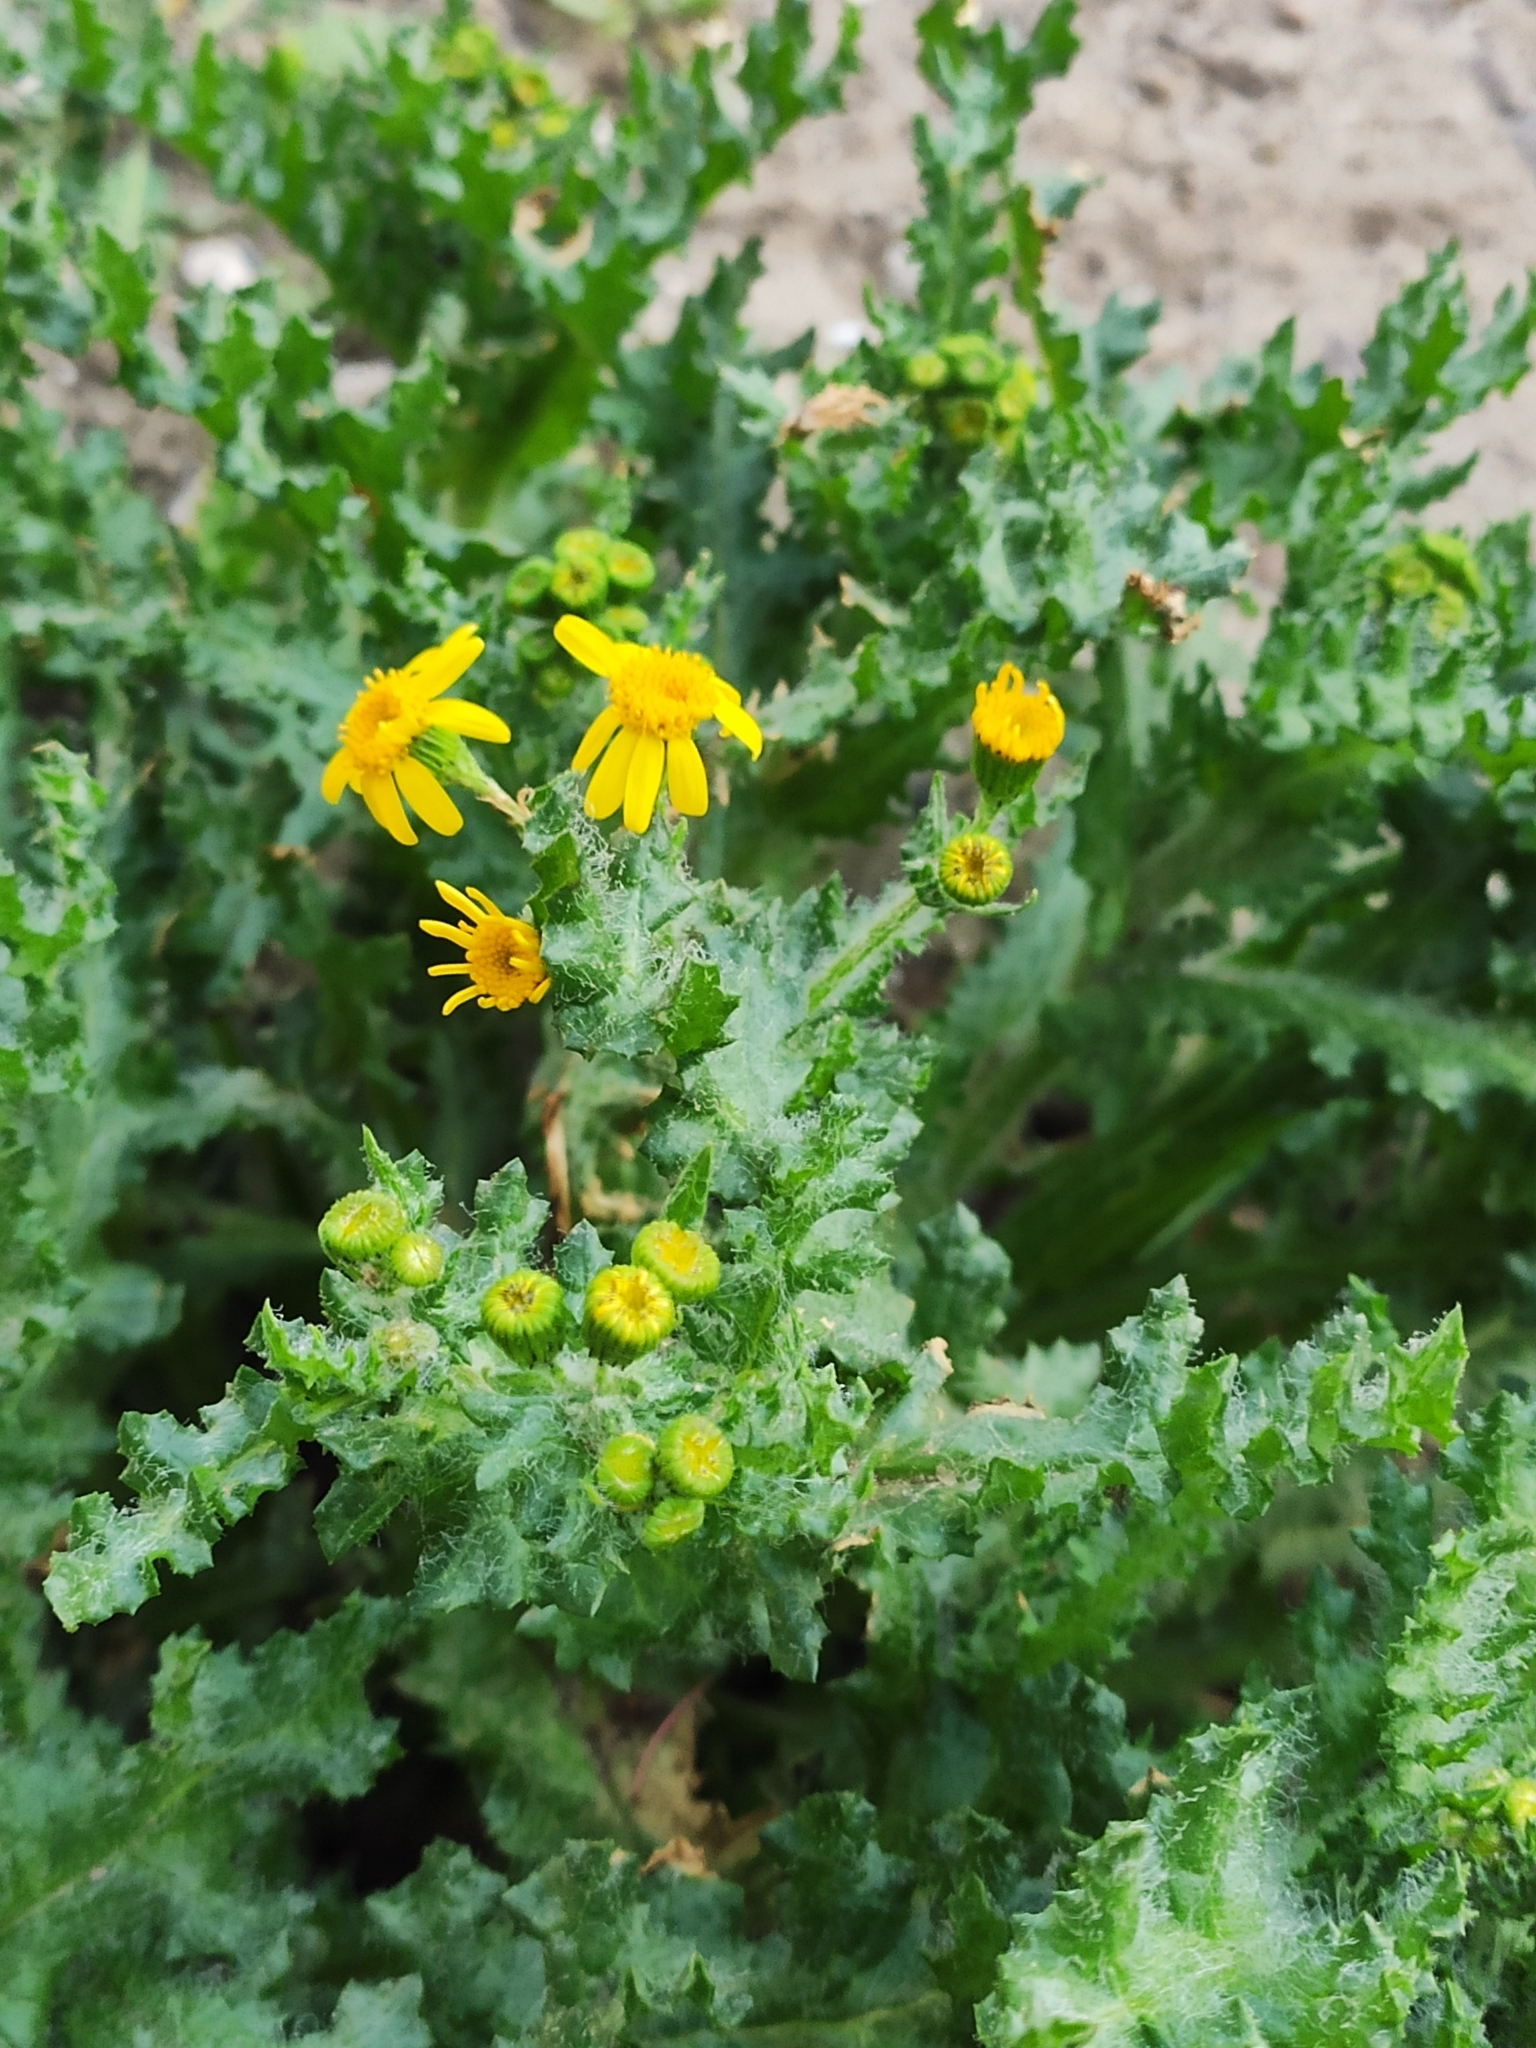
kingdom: Plantae
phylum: Tracheophyta
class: Magnoliopsida
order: Asterales
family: Asteraceae
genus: Senecio
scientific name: Senecio vernalis
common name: Eastern groundsel
